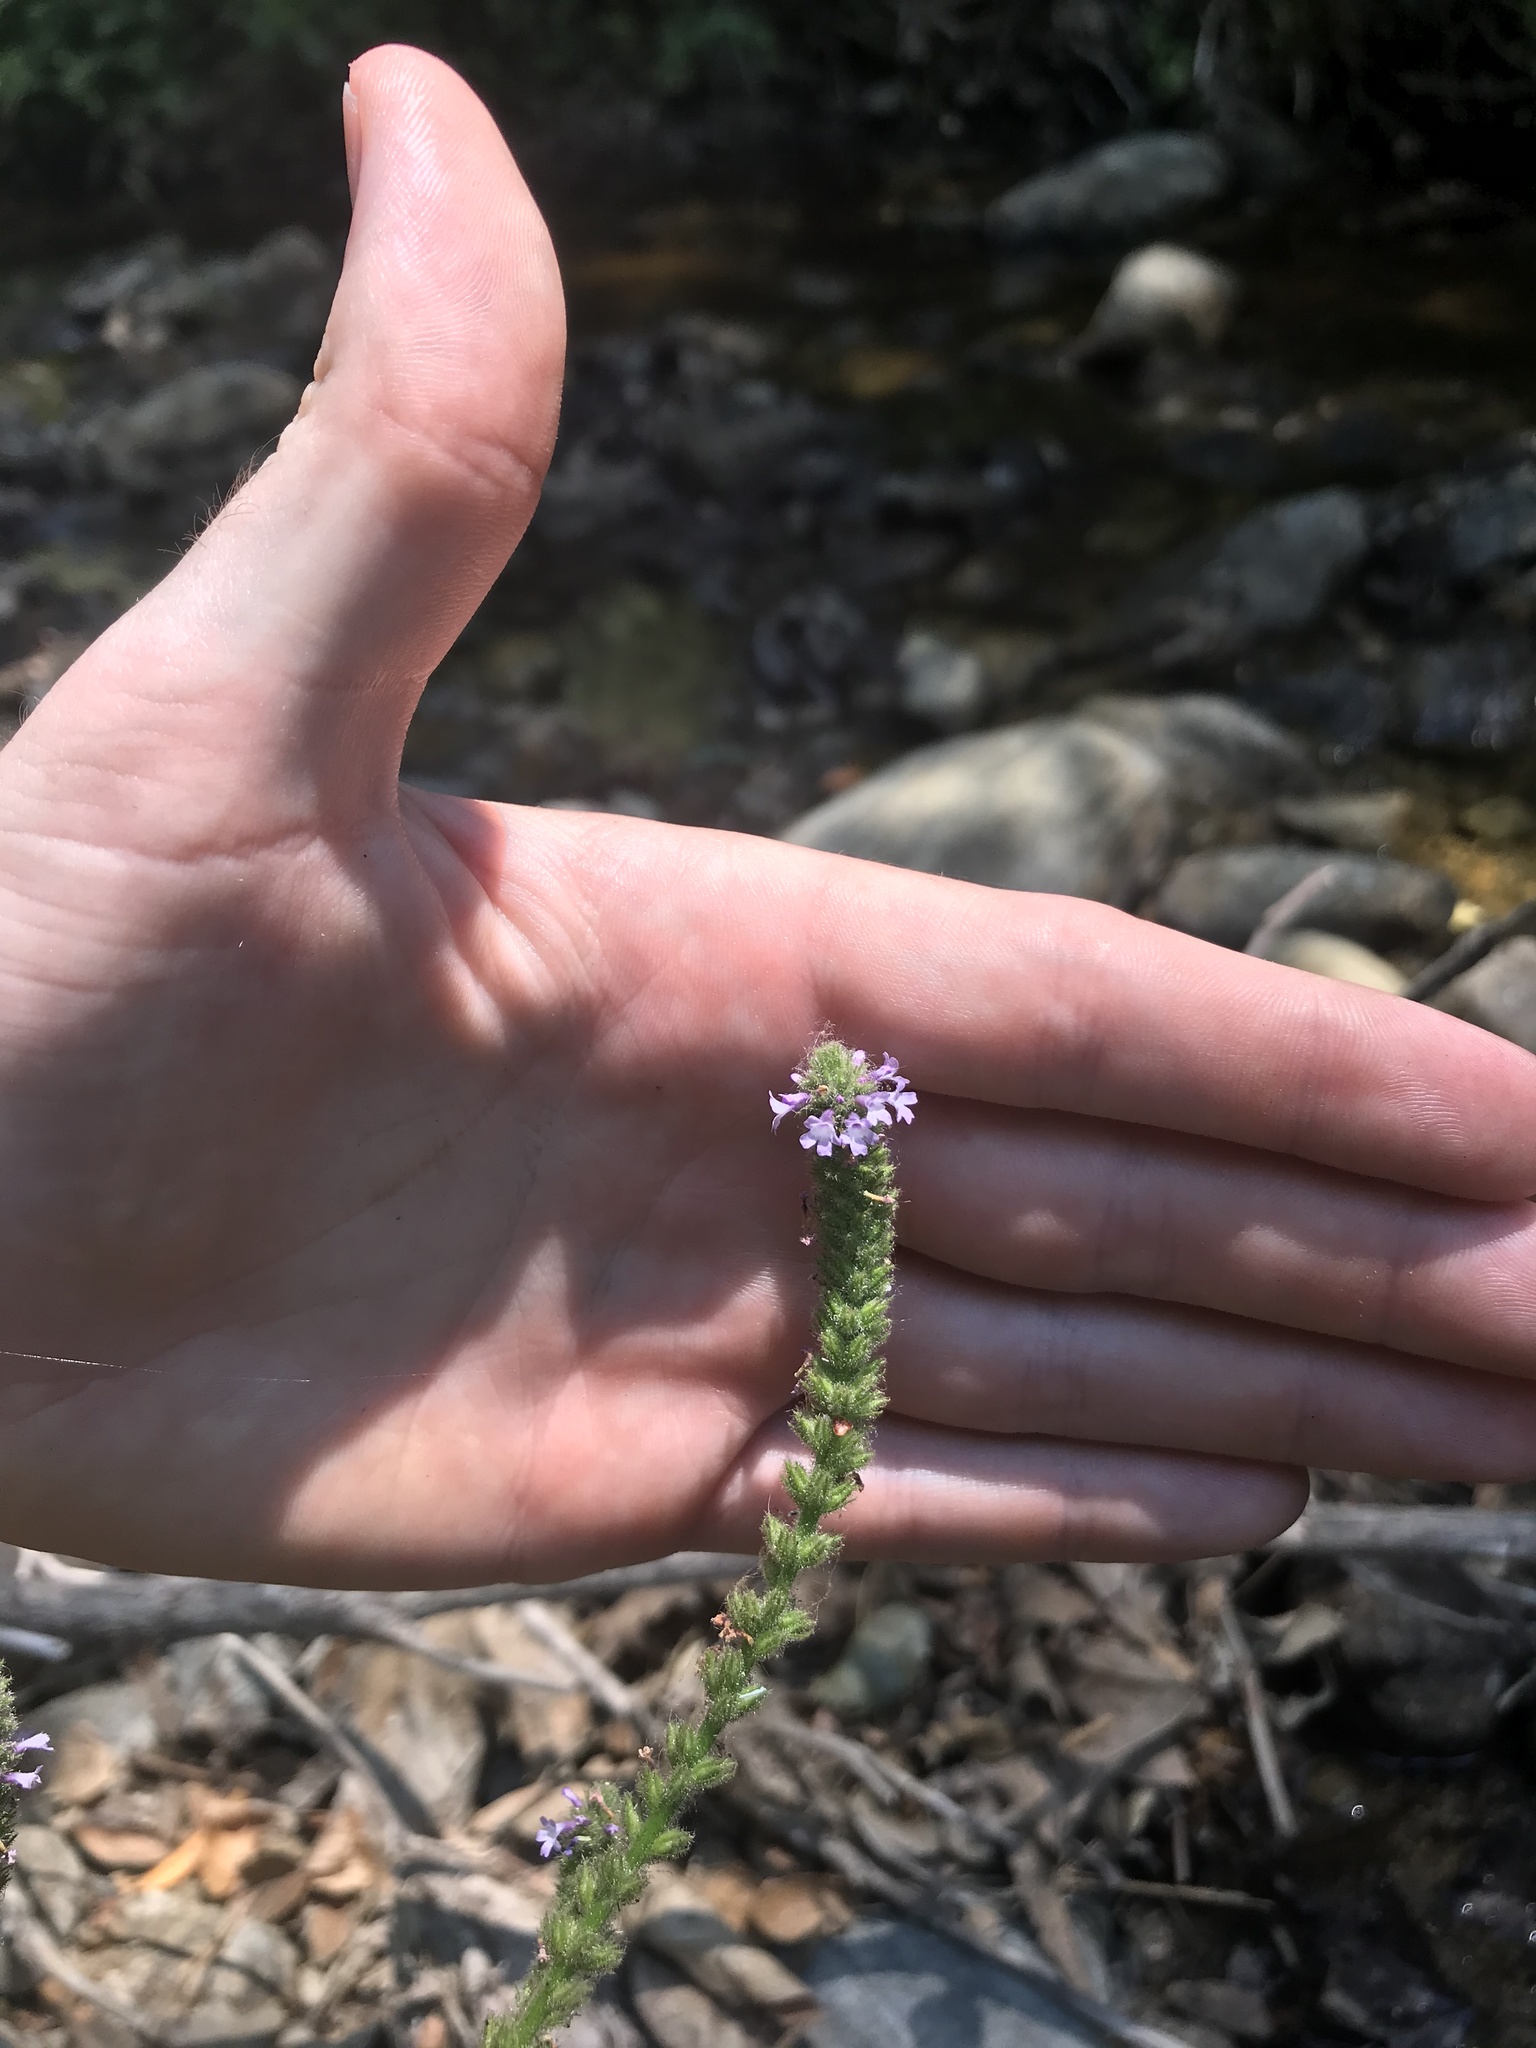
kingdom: Plantae
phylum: Tracheophyta
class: Magnoliopsida
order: Lamiales
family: Verbenaceae
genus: Verbena
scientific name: Verbena lasiostachys
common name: Vervain
